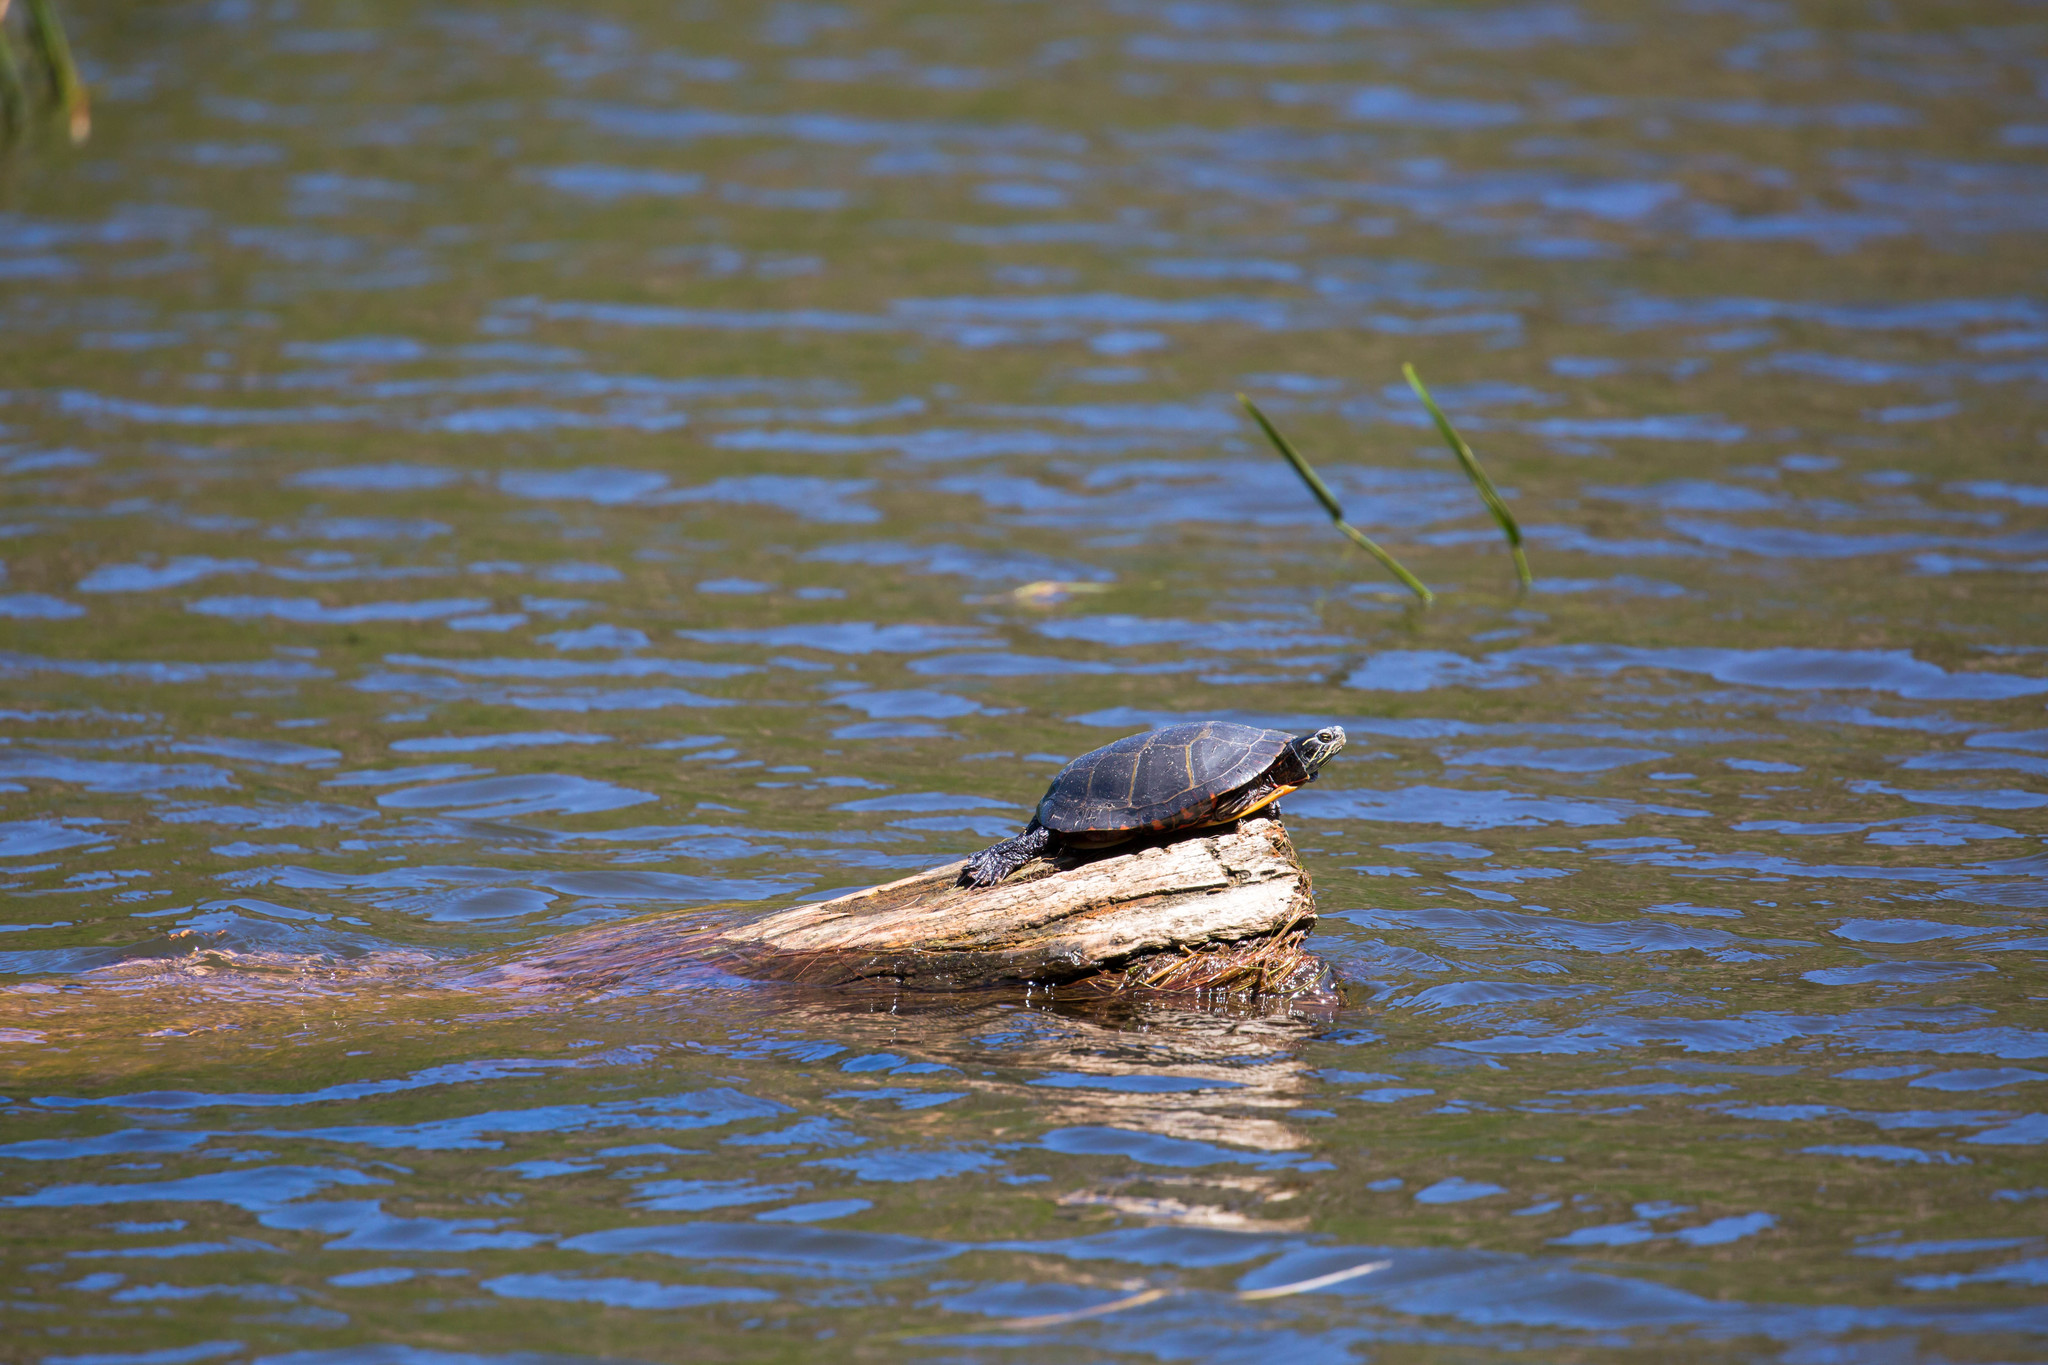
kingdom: Animalia
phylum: Chordata
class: Testudines
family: Emydidae
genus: Chrysemys
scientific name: Chrysemys picta
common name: Painted turtle
